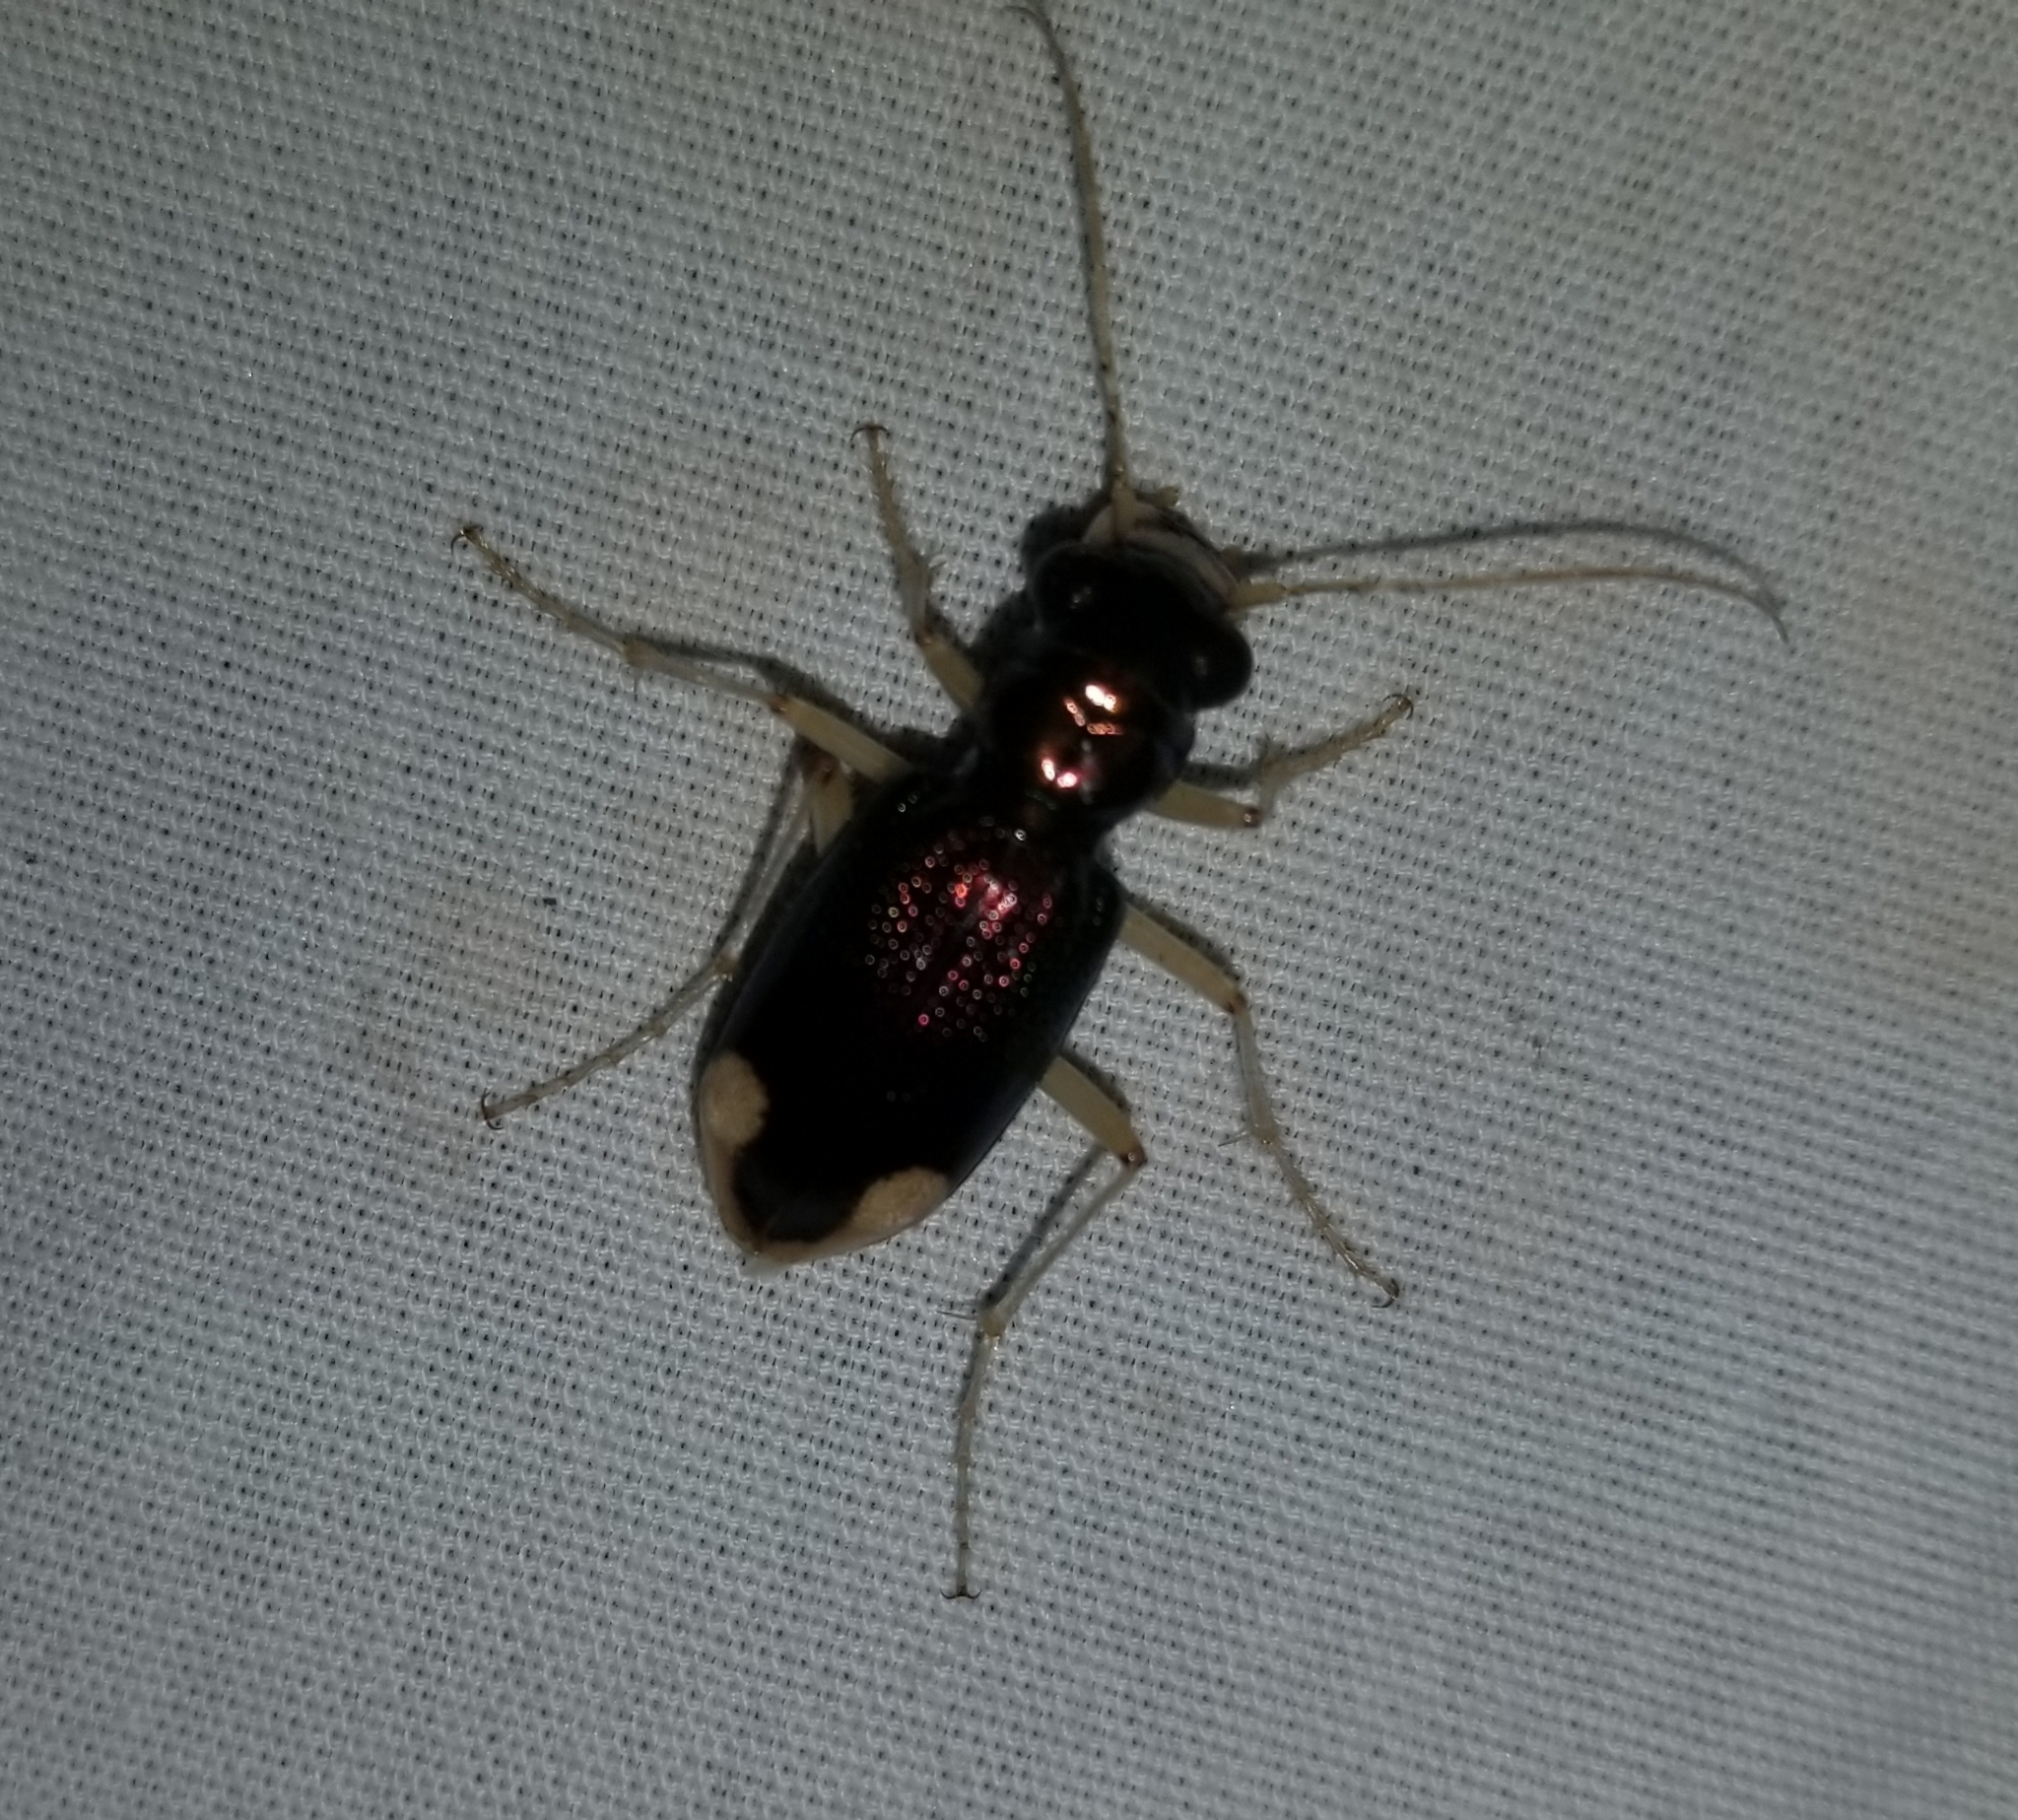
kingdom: Animalia
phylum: Arthropoda
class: Insecta
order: Coleoptera
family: Carabidae
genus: Tetracha
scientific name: Tetracha carolina
